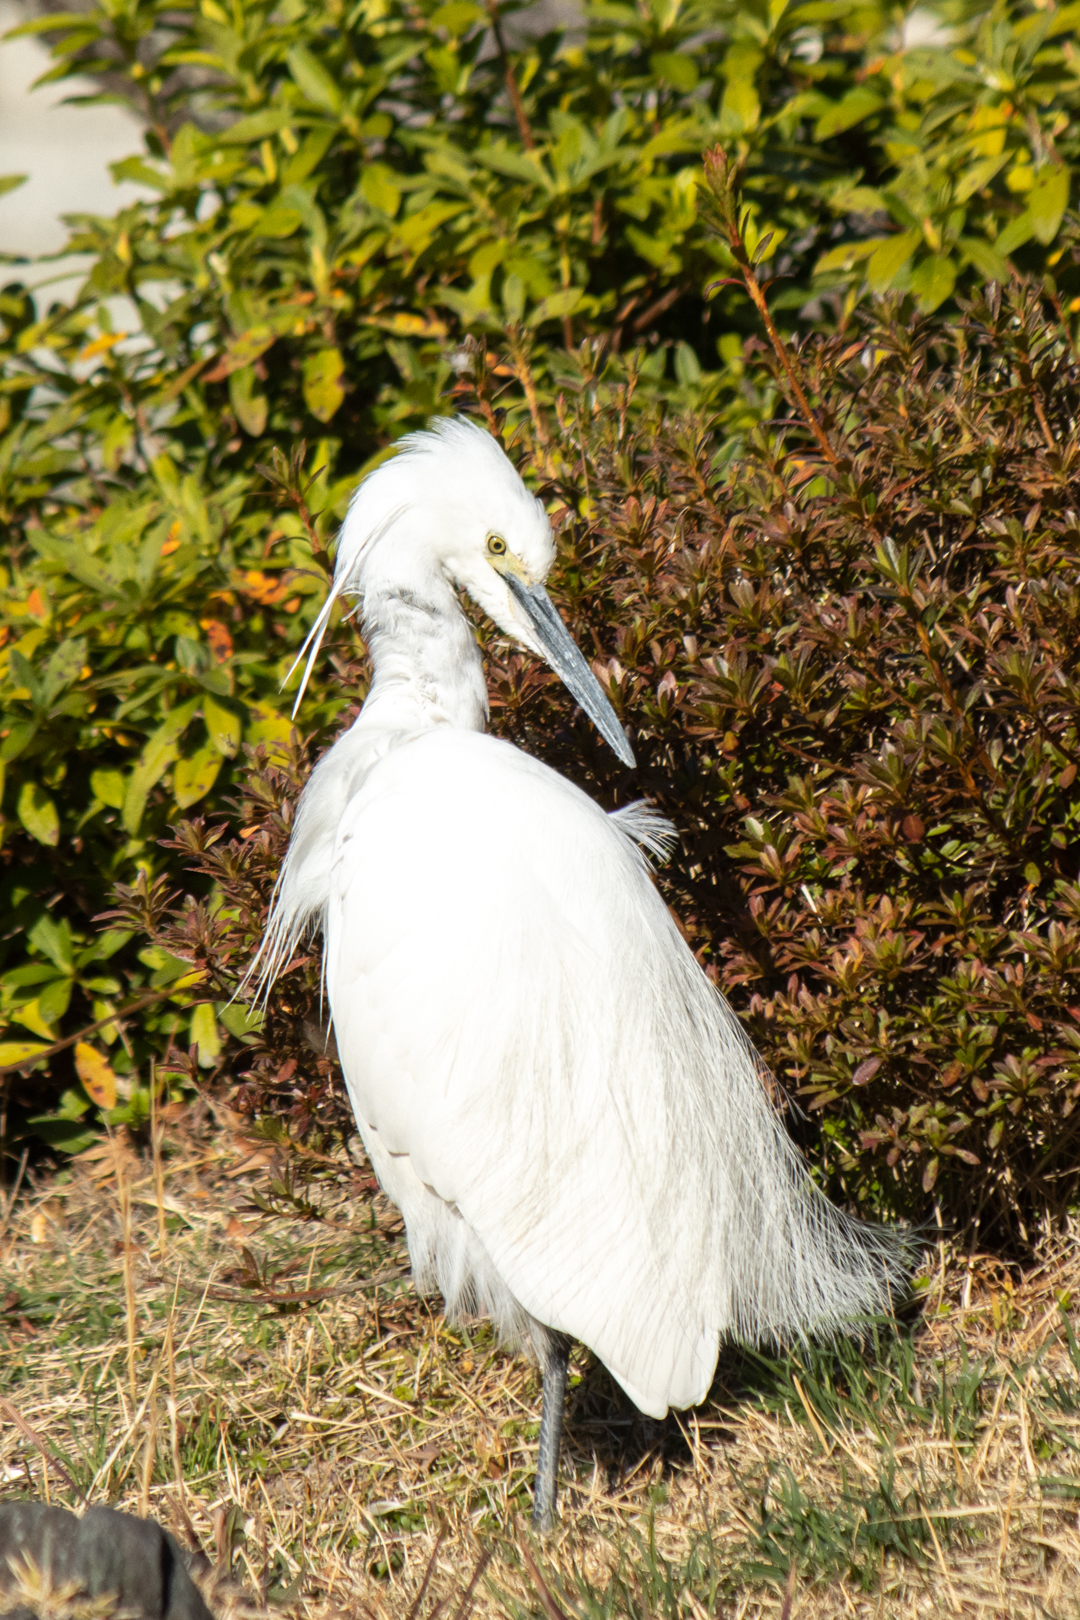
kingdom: Animalia
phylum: Chordata
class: Aves
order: Pelecaniformes
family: Ardeidae
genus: Egretta
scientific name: Egretta garzetta
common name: Little egret
